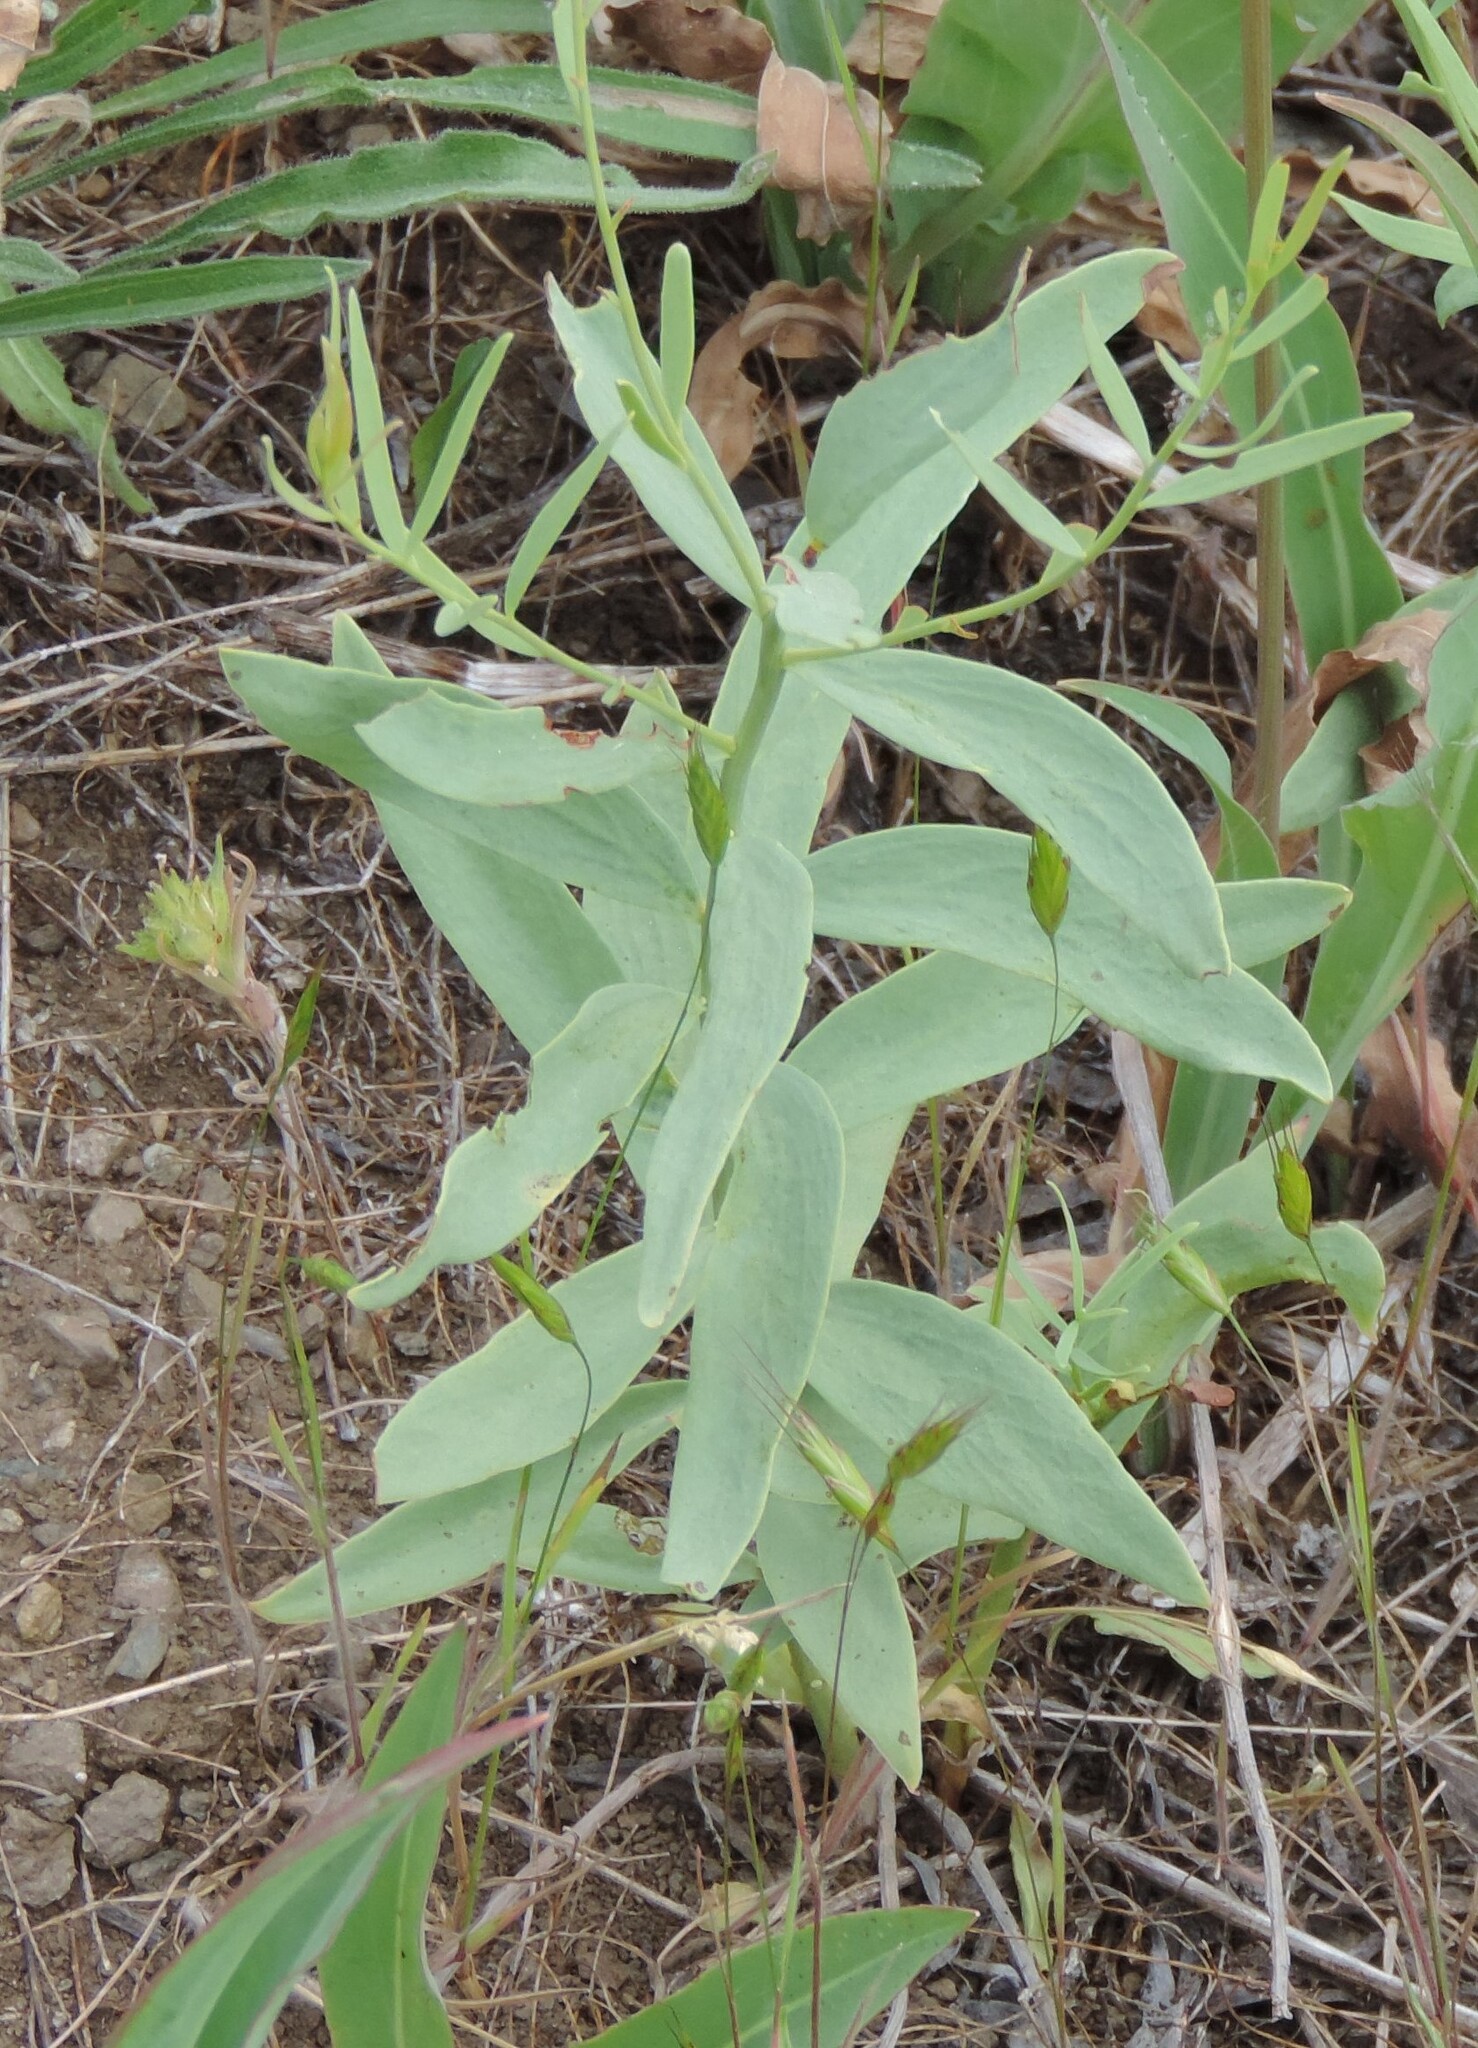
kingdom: Plantae
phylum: Tracheophyta
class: Magnoliopsida
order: Santalales
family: Comandraceae
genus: Comandra
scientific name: Comandra umbellata
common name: Bastard toadflax
